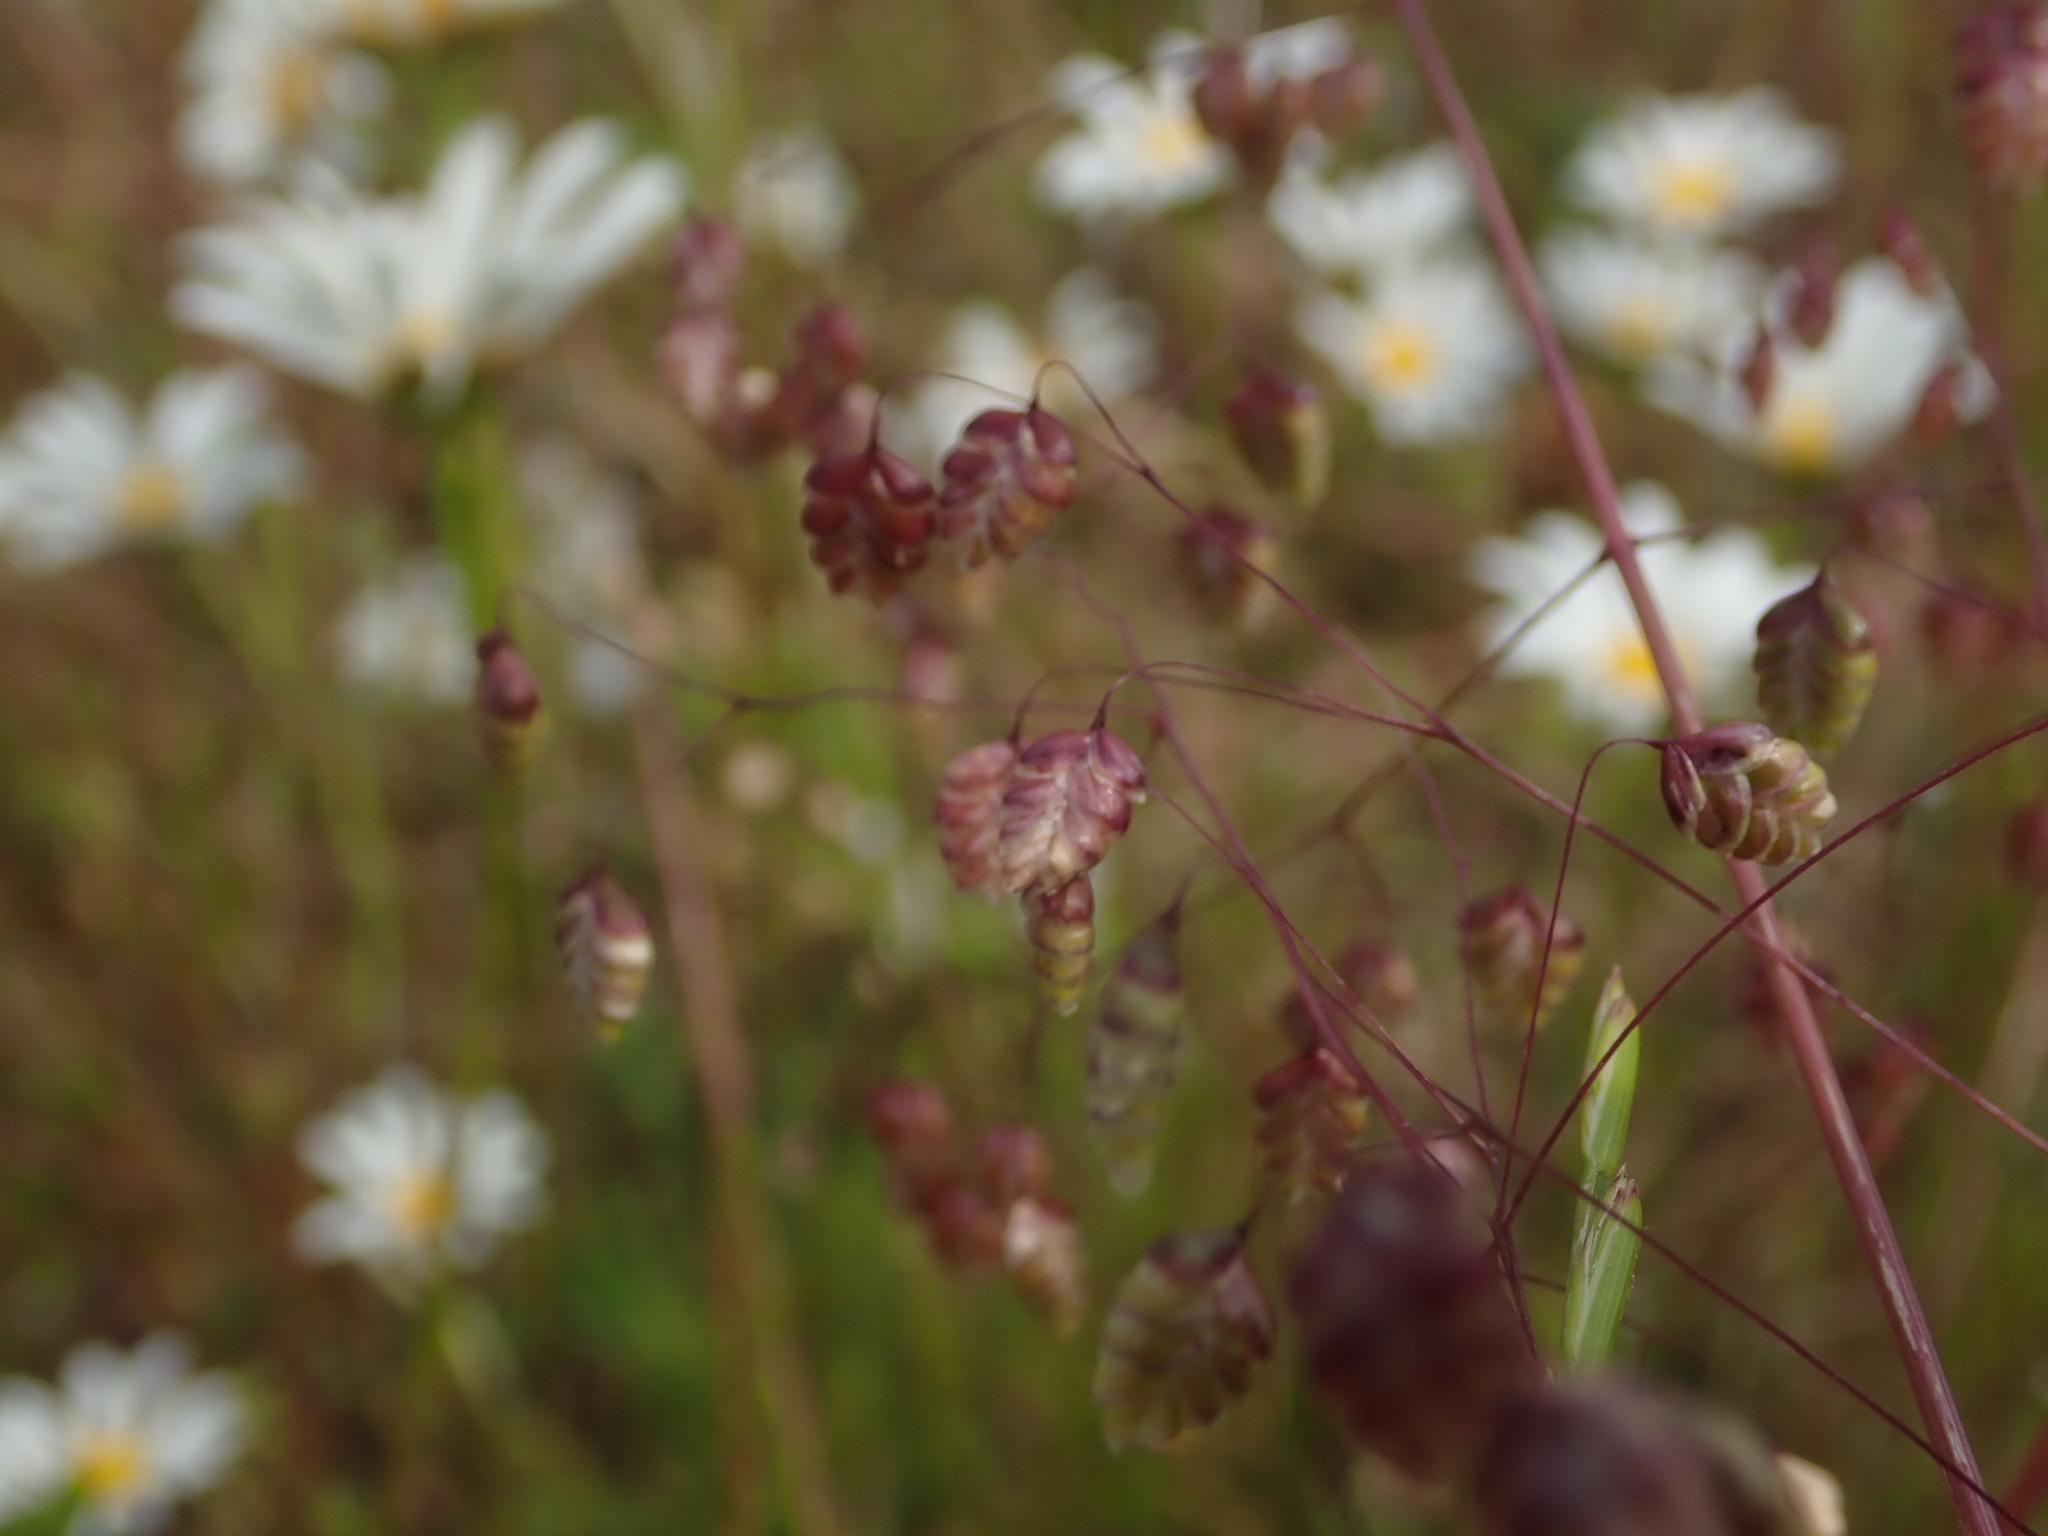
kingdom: Plantae
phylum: Tracheophyta
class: Liliopsida
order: Poales
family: Poaceae
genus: Briza
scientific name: Briza media
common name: Quaking grass
